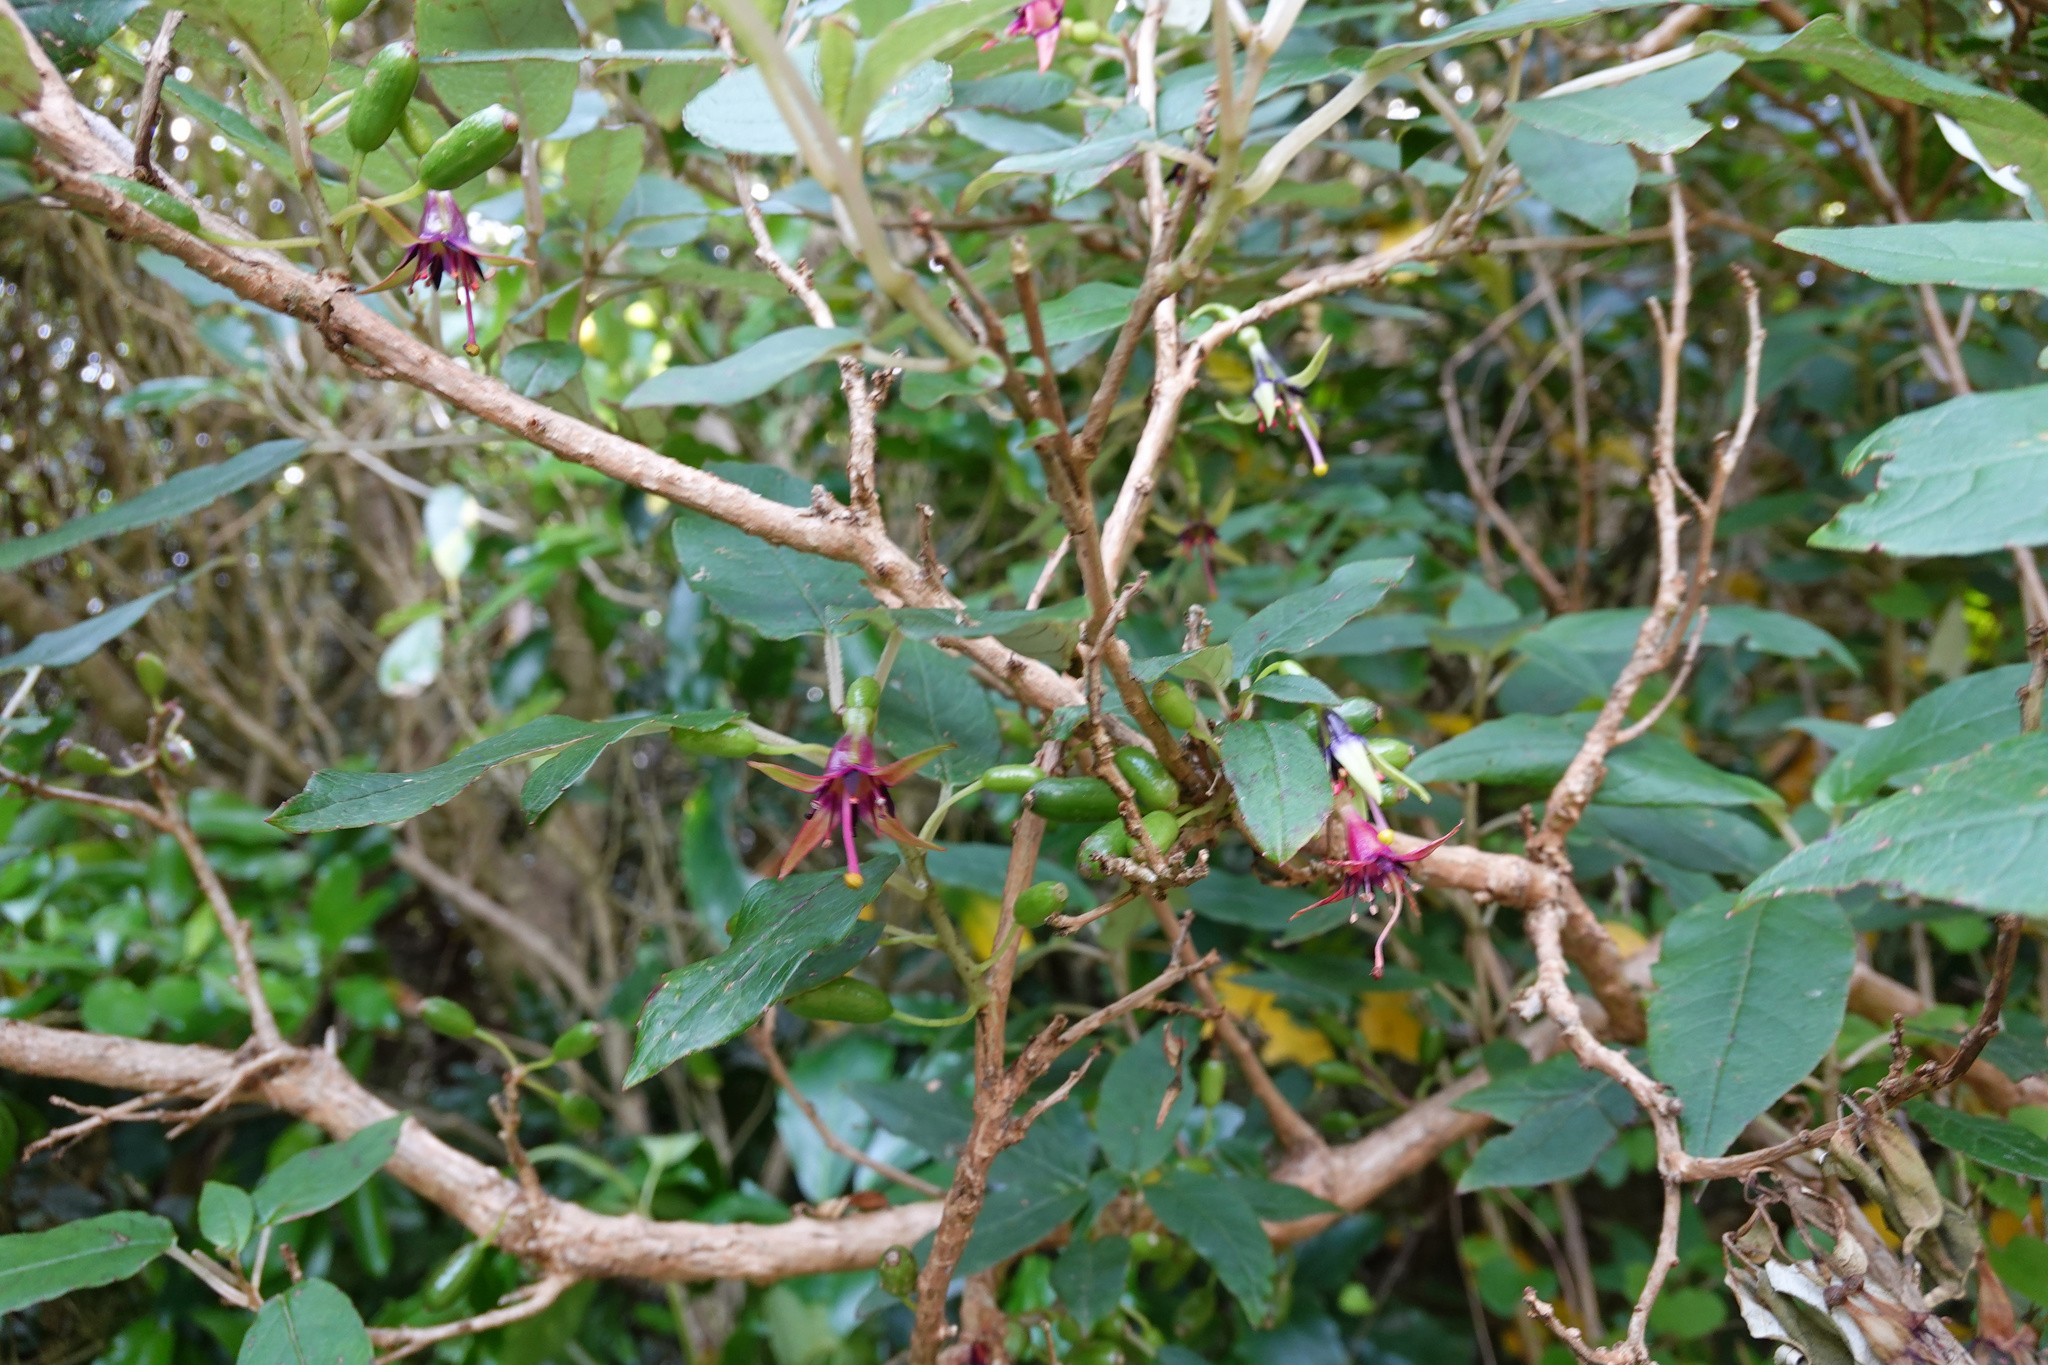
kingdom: Plantae
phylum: Tracheophyta
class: Magnoliopsida
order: Myrtales
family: Onagraceae
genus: Fuchsia
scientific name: Fuchsia excorticata
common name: Tree fuchsia
